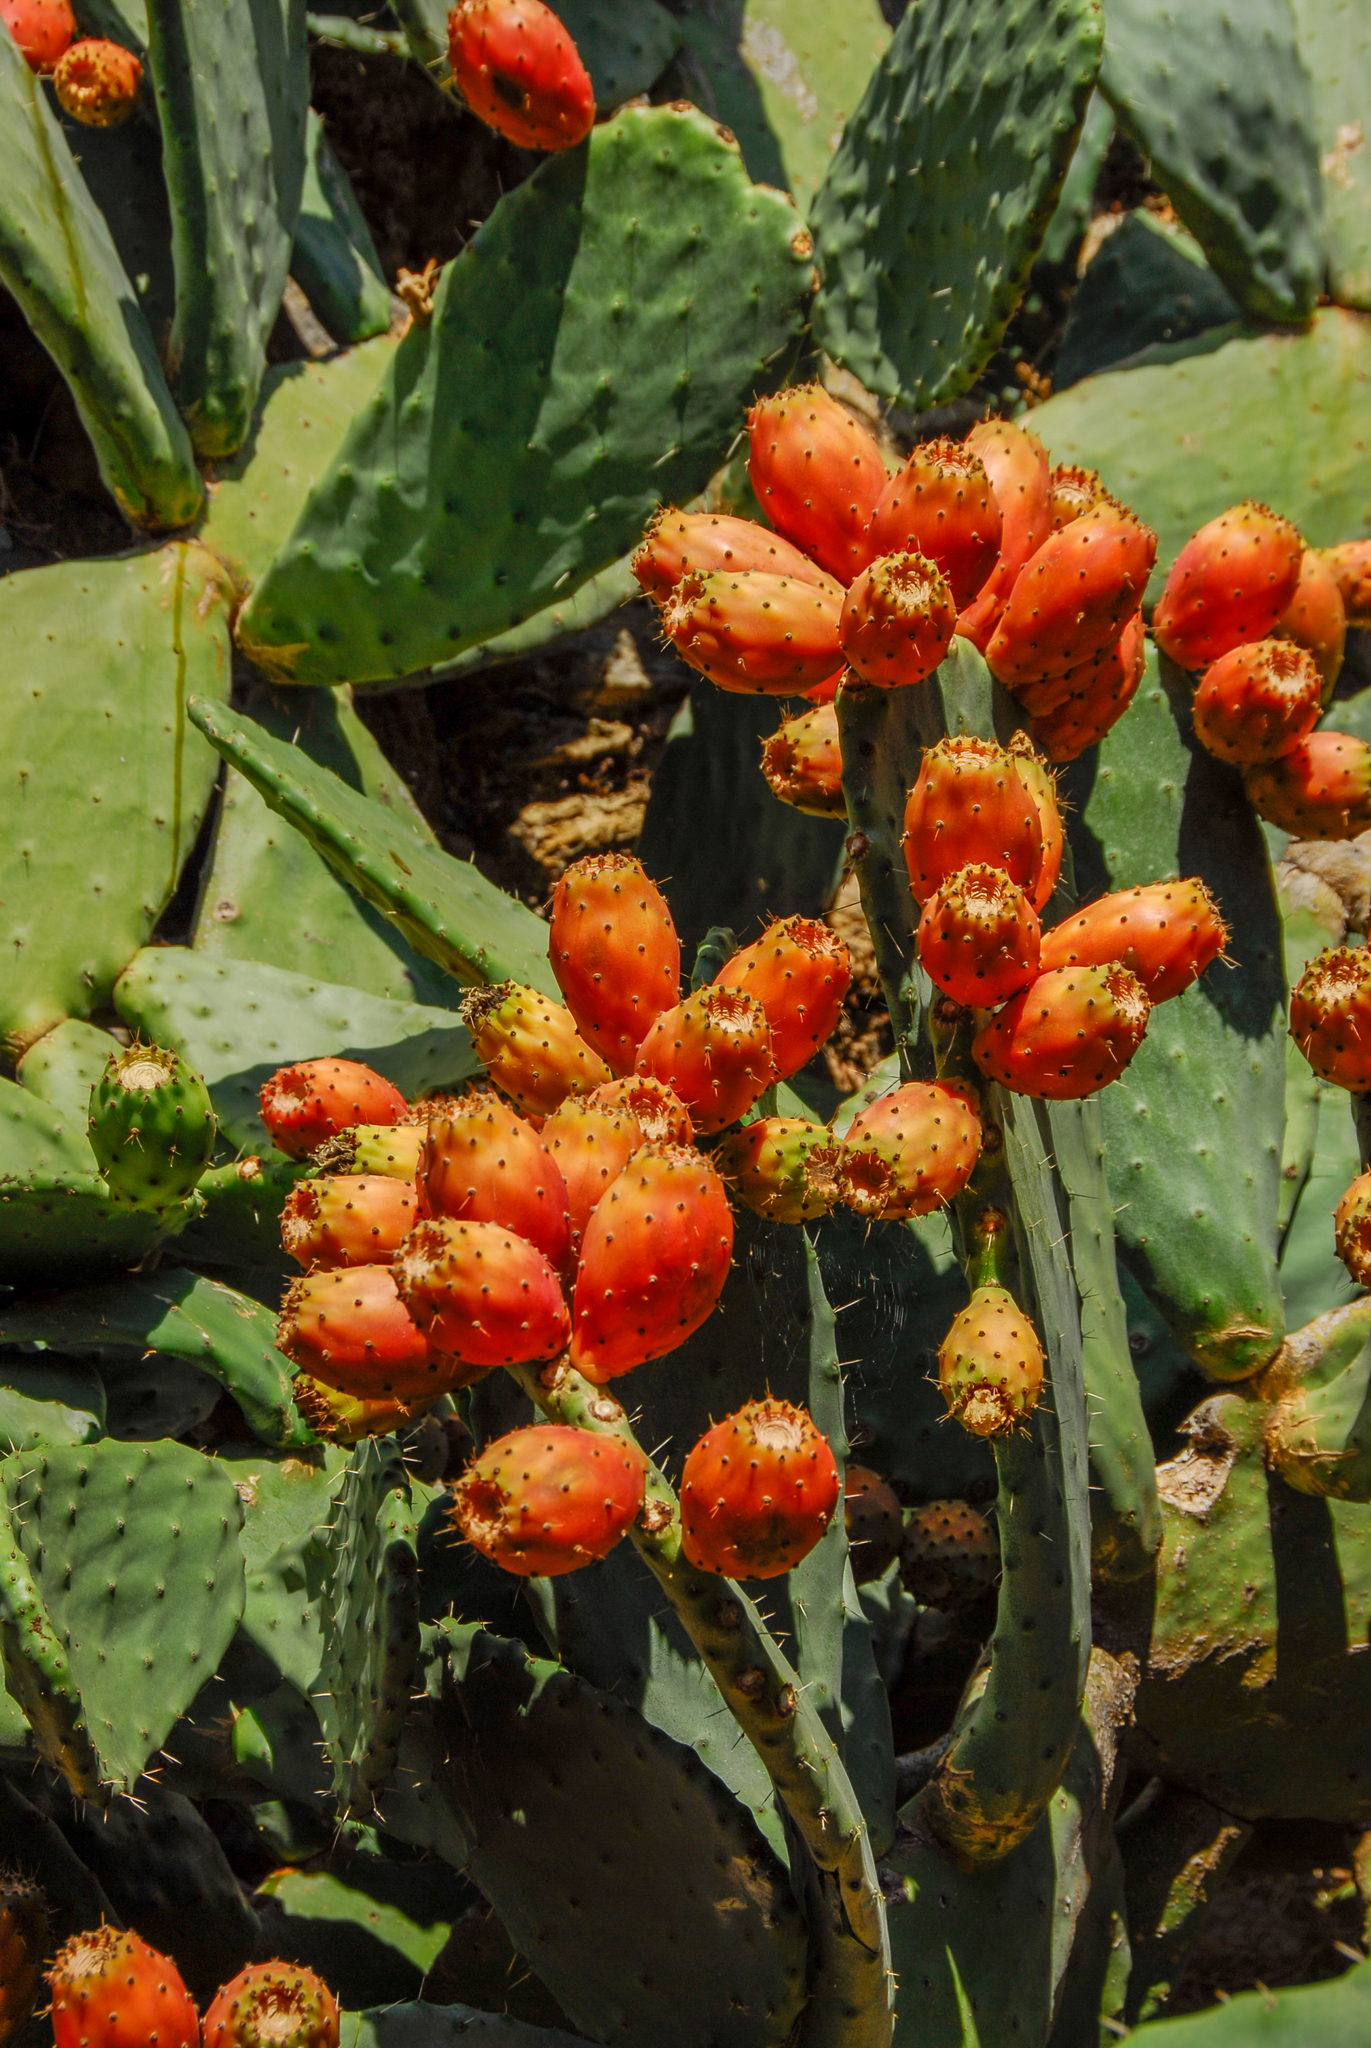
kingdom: Plantae
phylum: Tracheophyta
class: Magnoliopsida
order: Caryophyllales
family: Cactaceae
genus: Opuntia
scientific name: Opuntia ficus-indica
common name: Barbary fig
